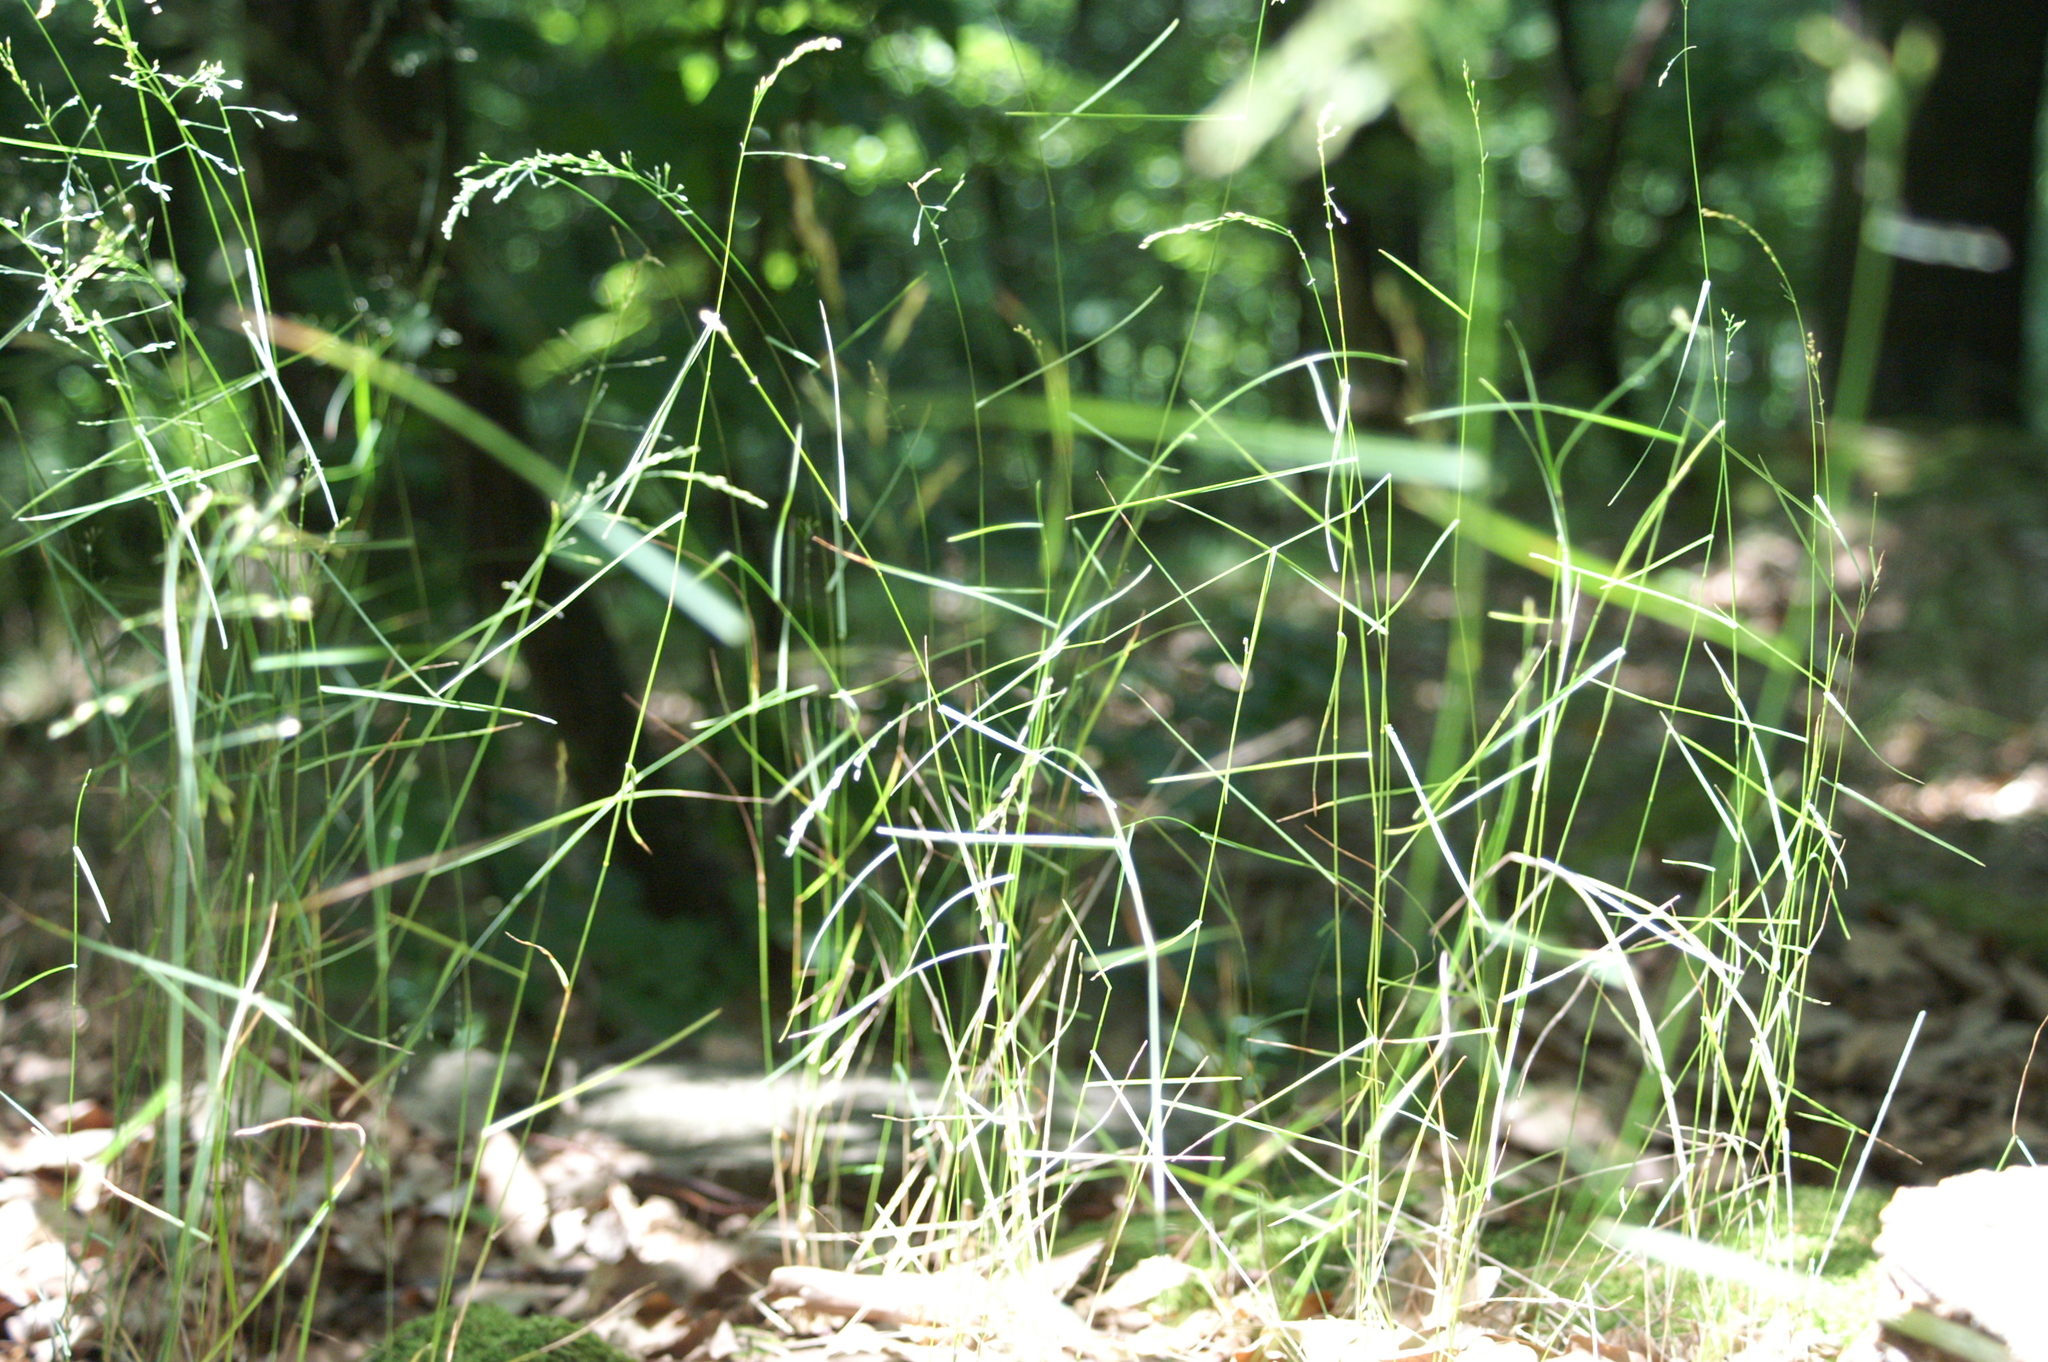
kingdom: Plantae
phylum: Tracheophyta
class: Liliopsida
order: Poales
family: Poaceae
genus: Poa
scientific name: Poa nemoralis
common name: Wood bluegrass
